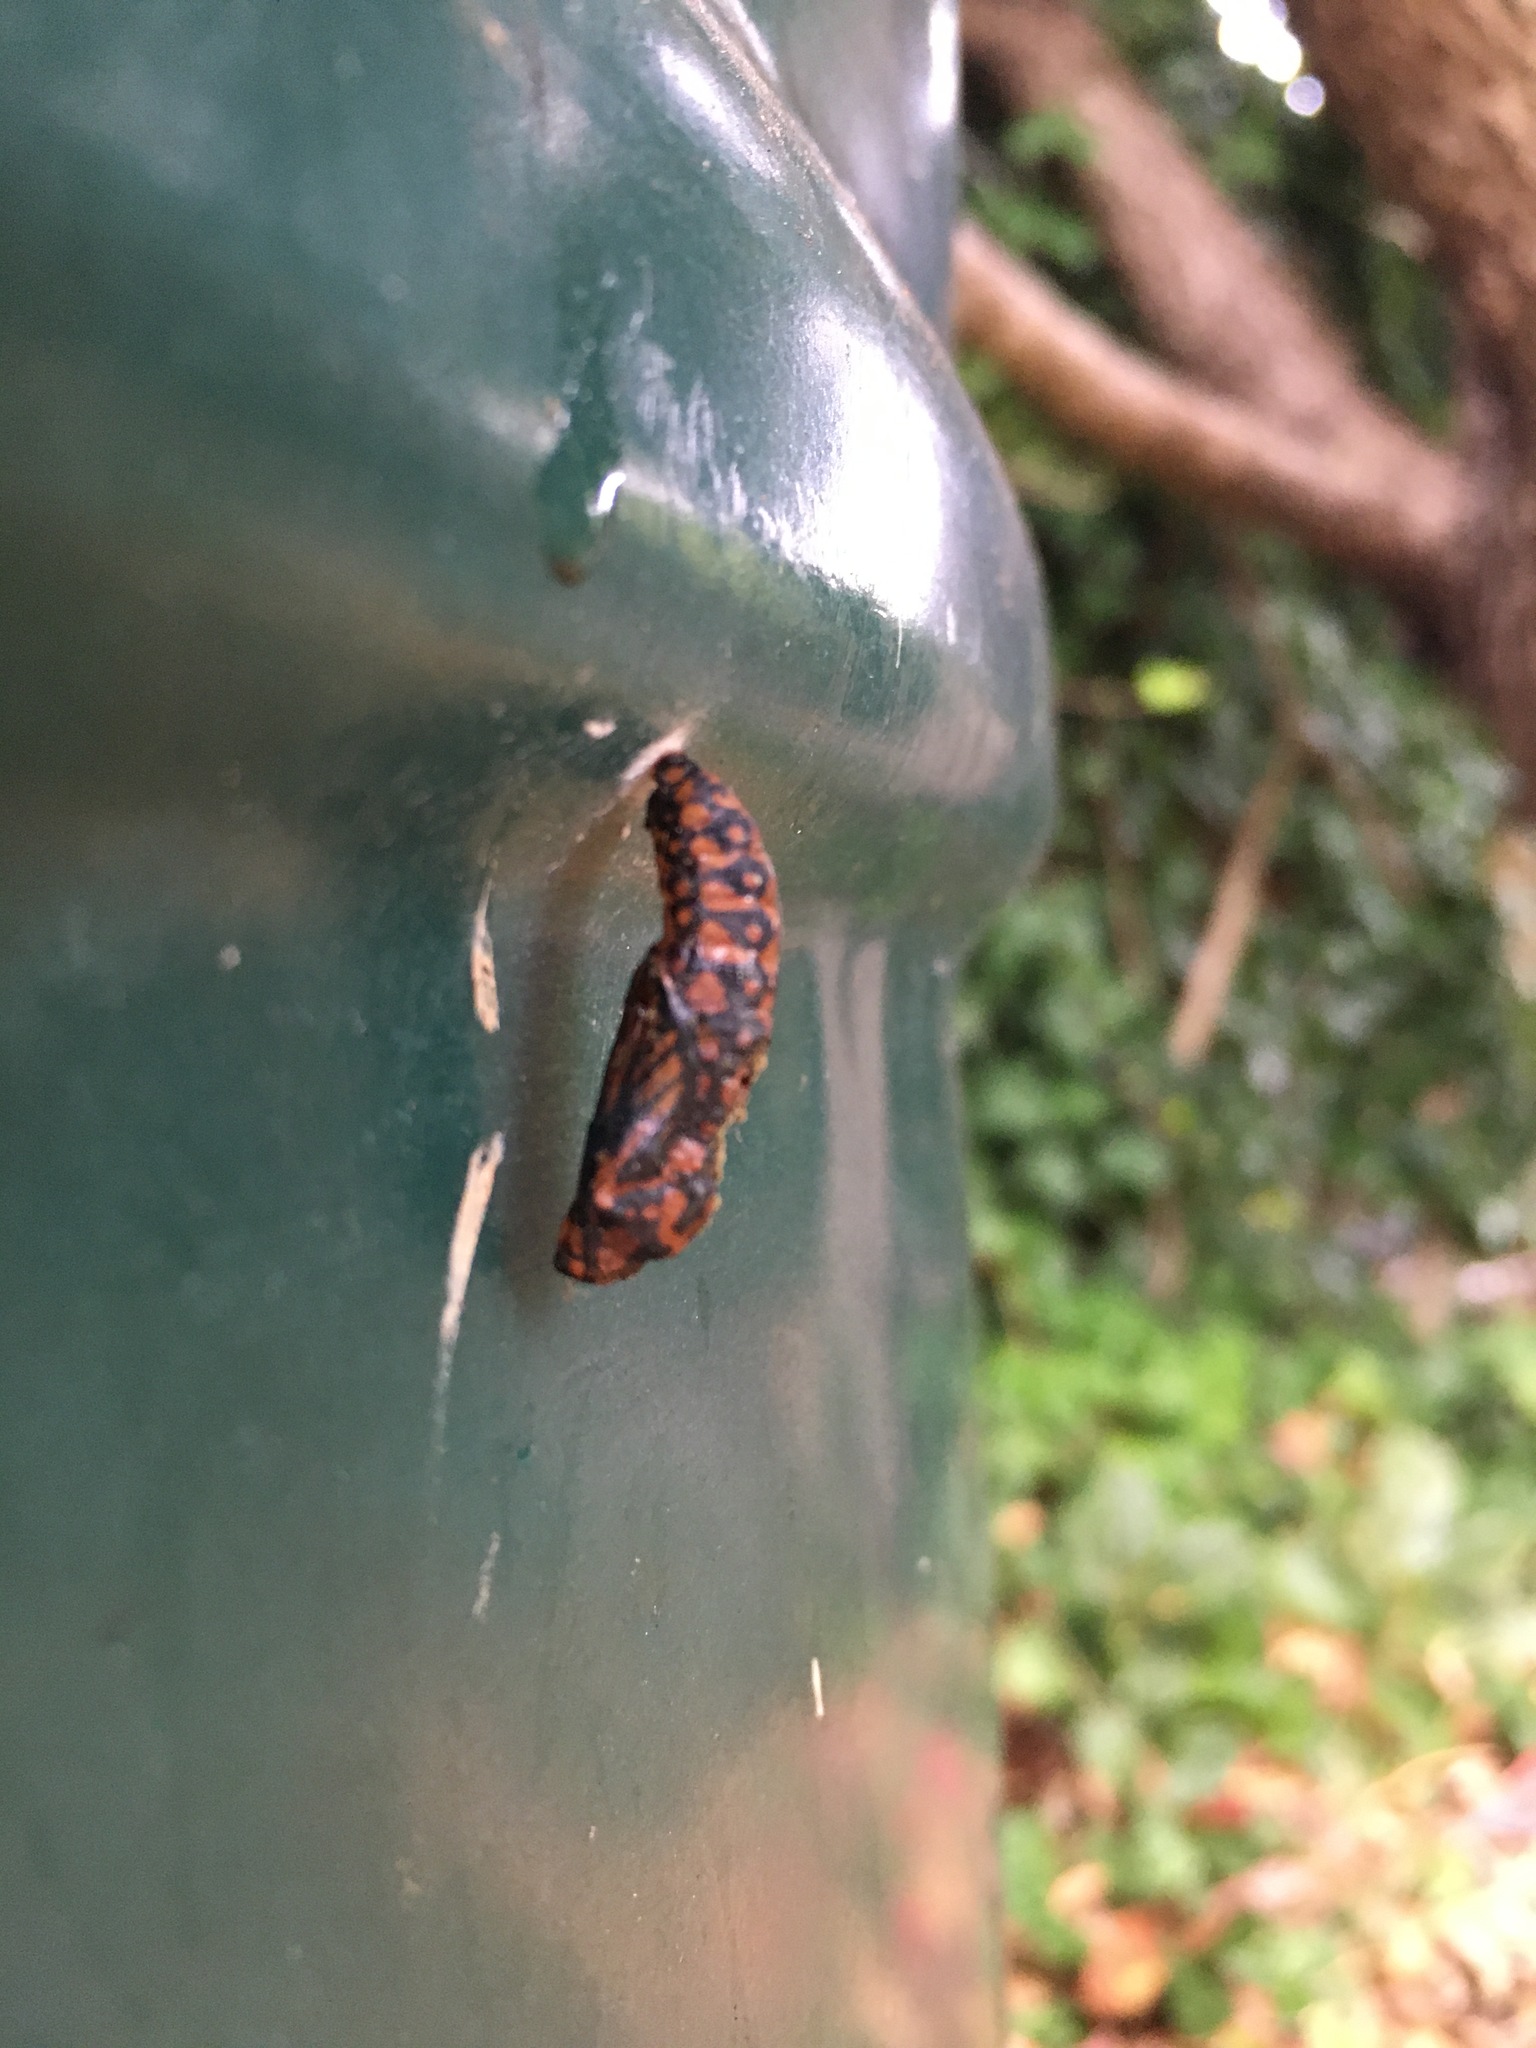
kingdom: Animalia
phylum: Arthropoda
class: Insecta
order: Lepidoptera
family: Nymphalidae
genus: Acraea
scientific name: Acraea horta
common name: Garden acraea
